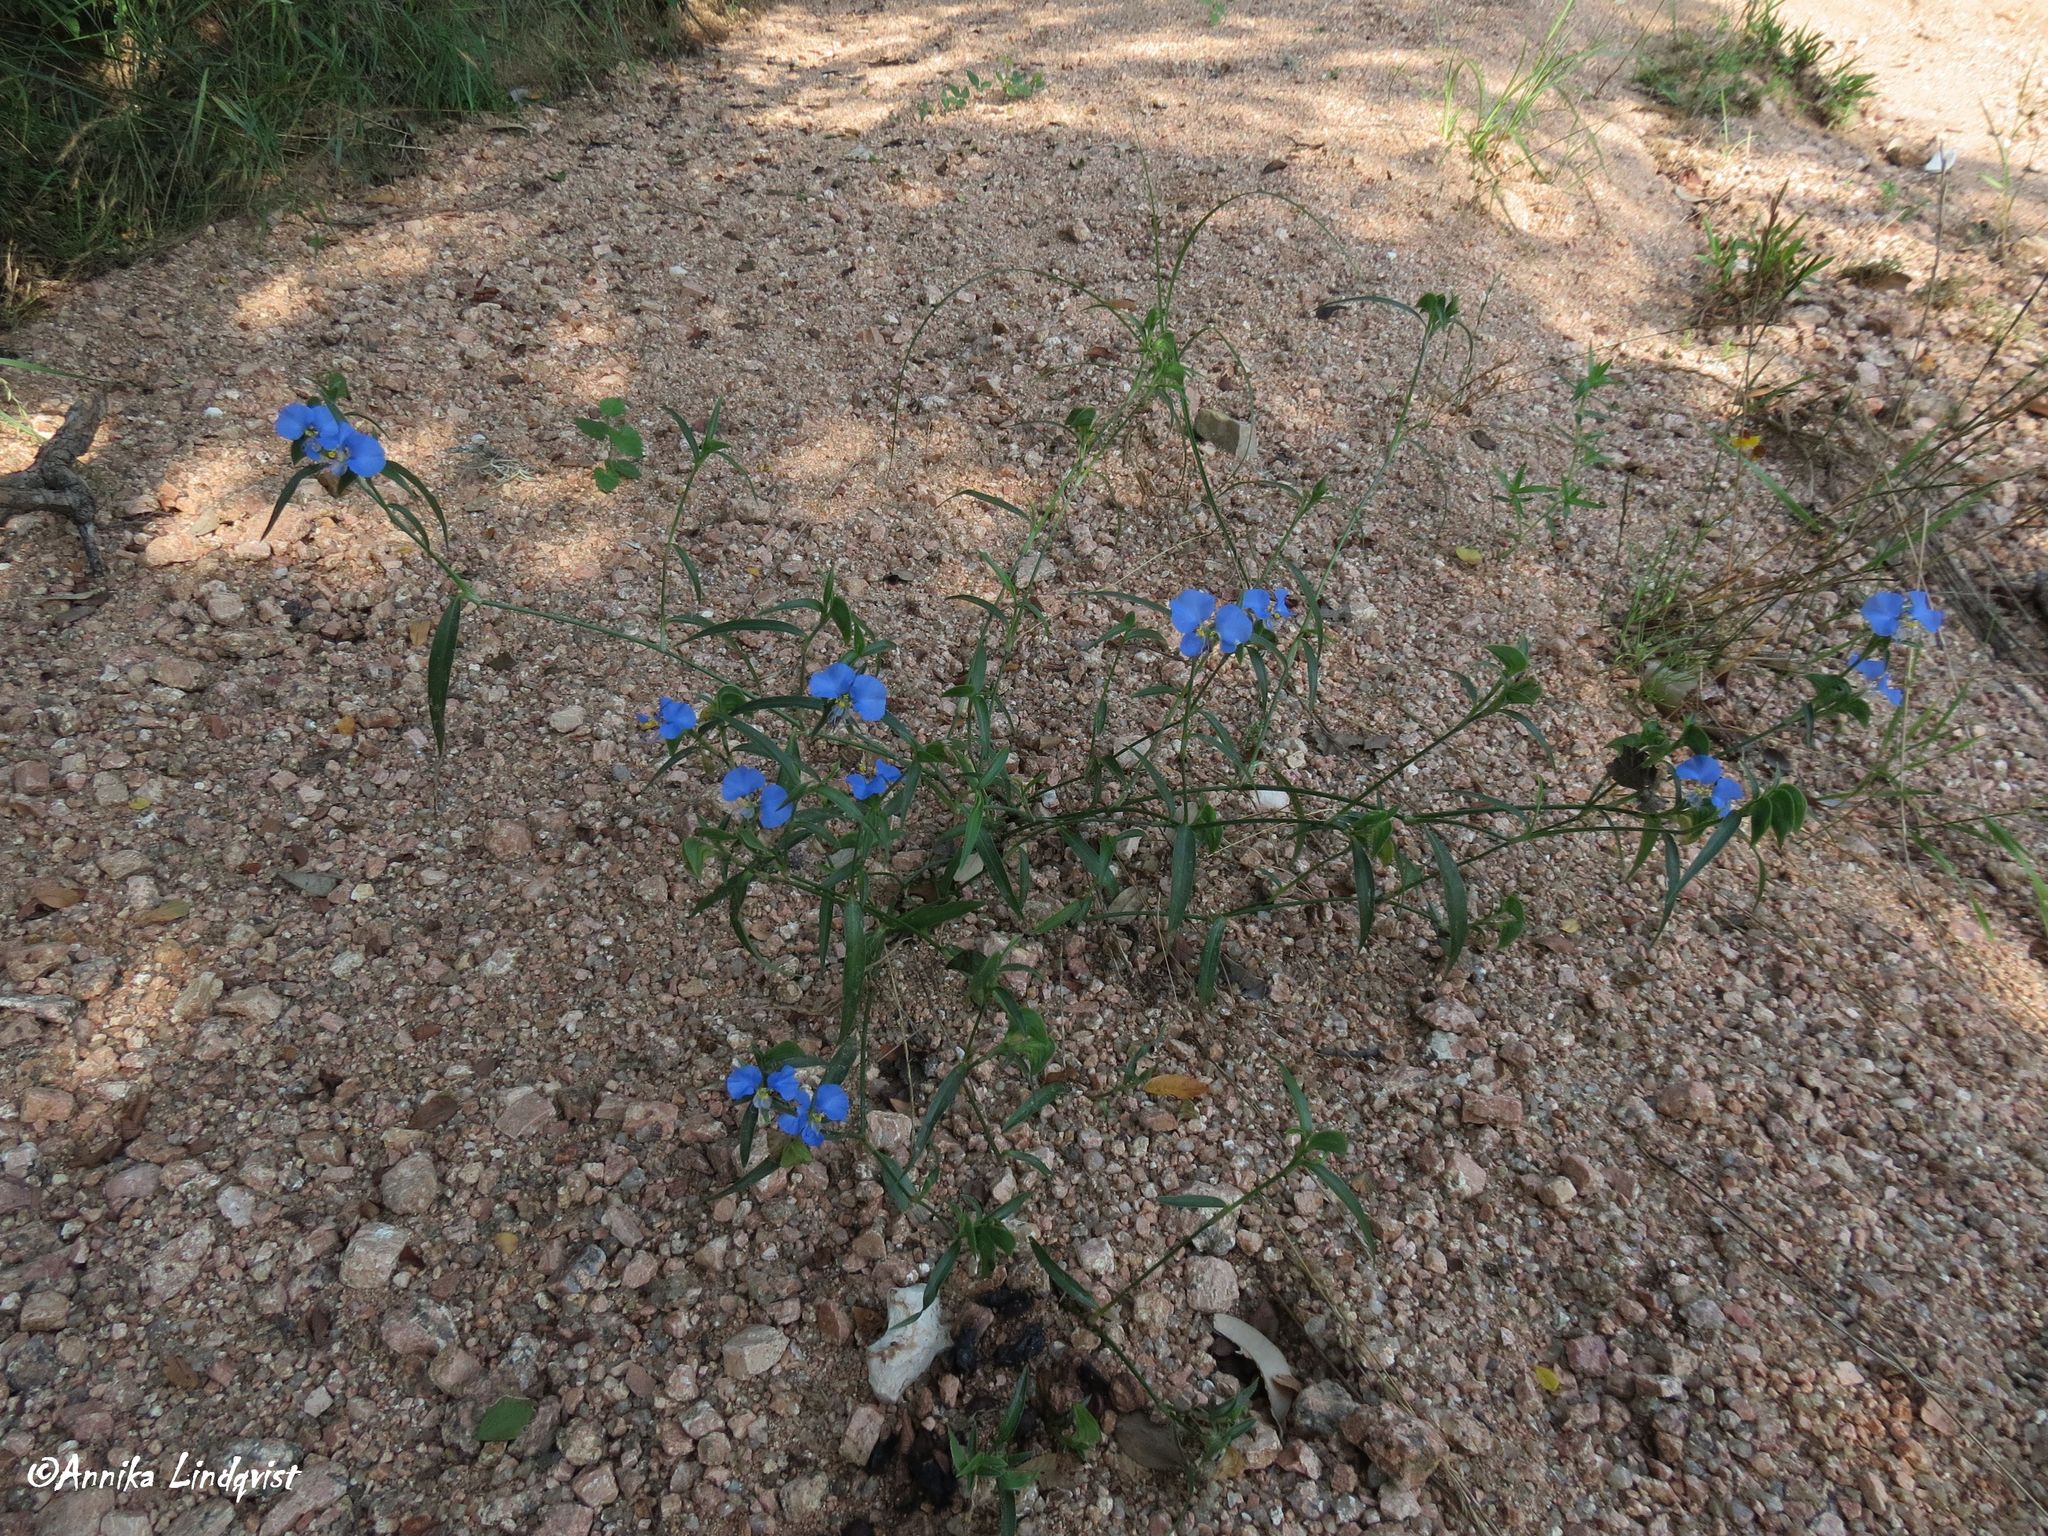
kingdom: Plantae
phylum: Tracheophyta
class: Liliopsida
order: Commelinales
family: Commelinaceae
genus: Commelina
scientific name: Commelina erecta
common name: Blousel blommetjie
